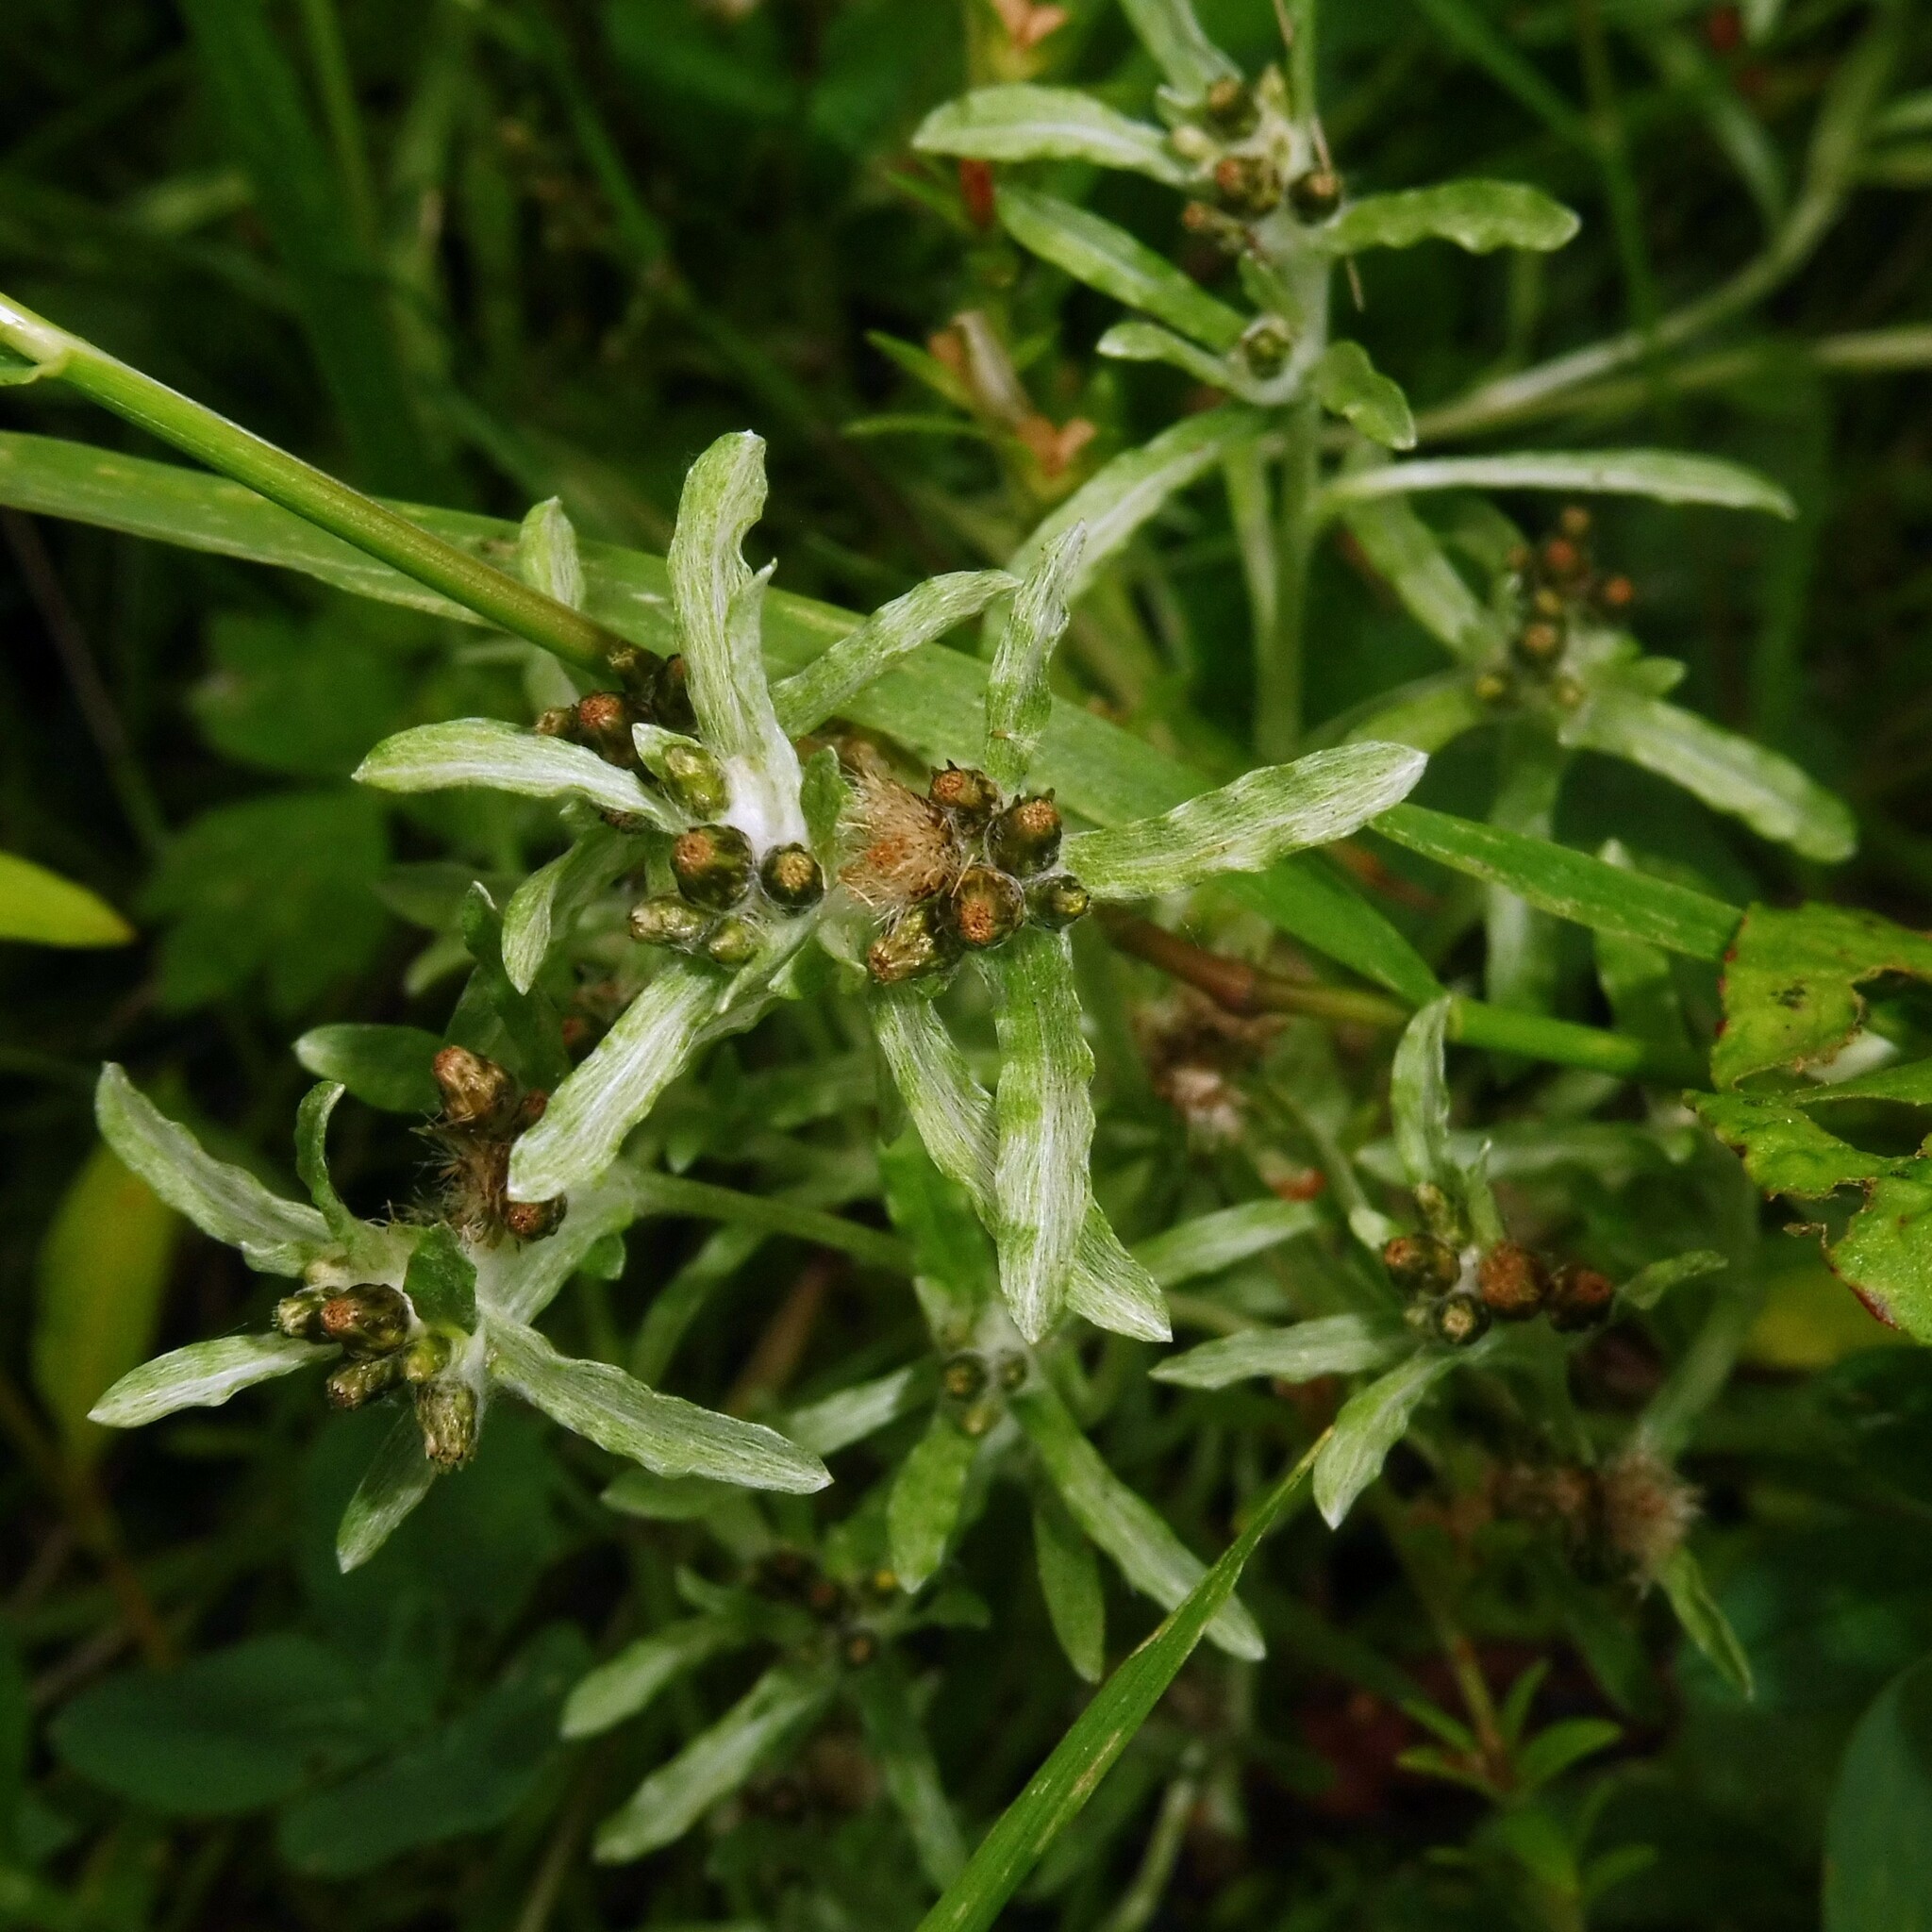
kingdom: Plantae
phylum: Tracheophyta
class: Magnoliopsida
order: Asterales
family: Asteraceae
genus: Gnaphalium
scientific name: Gnaphalium uliginosum
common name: Marsh cudweed
